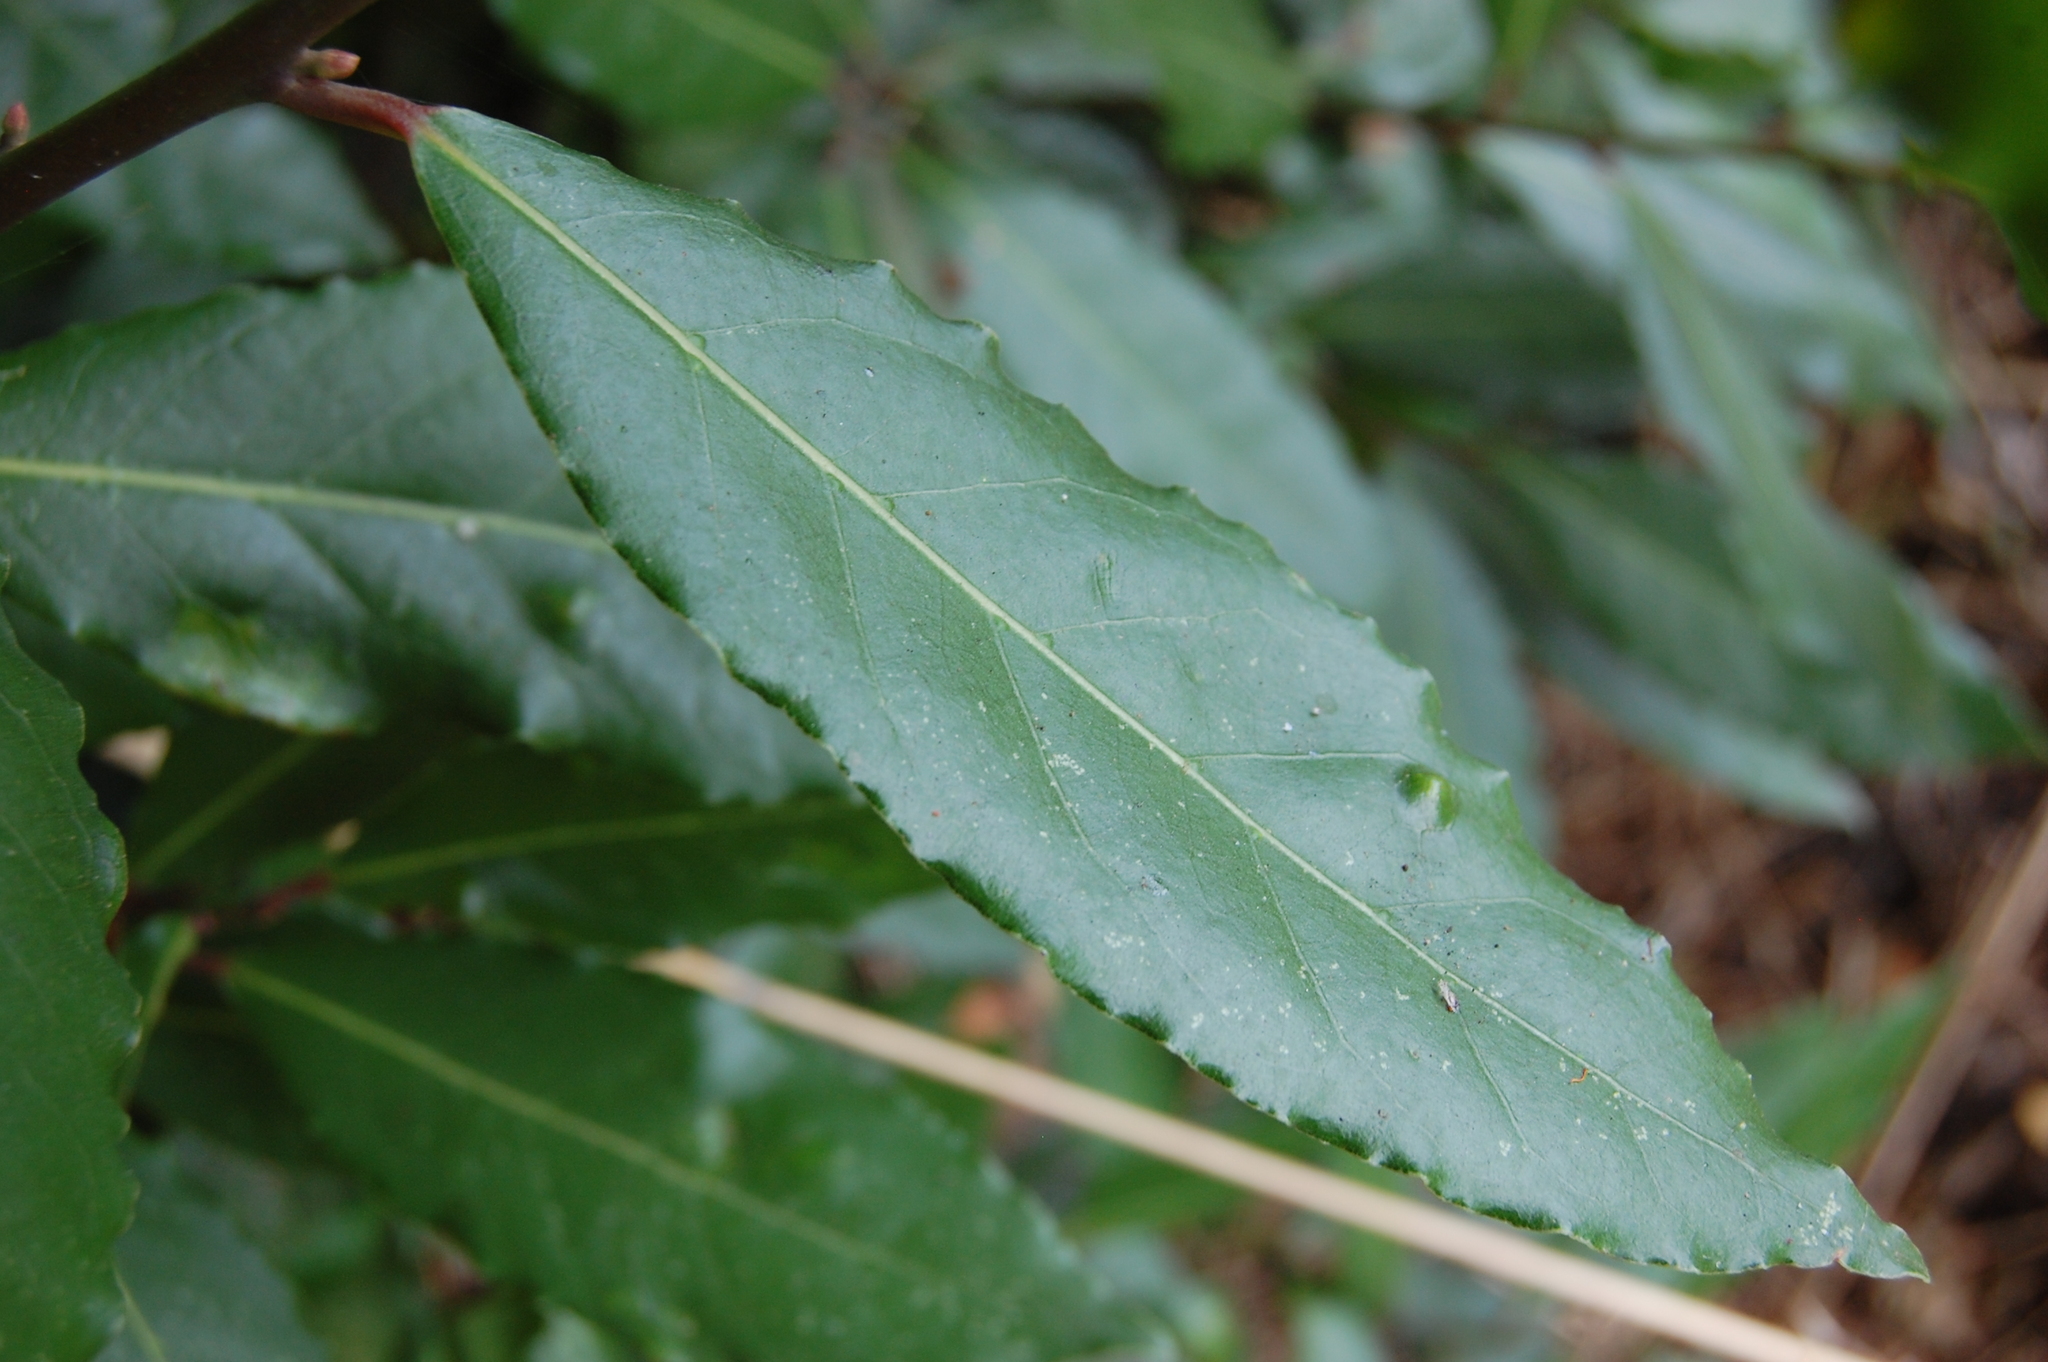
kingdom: Plantae
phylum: Tracheophyta
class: Magnoliopsida
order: Laurales
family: Lauraceae
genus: Laurus
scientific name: Laurus nobilis
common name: Bay
